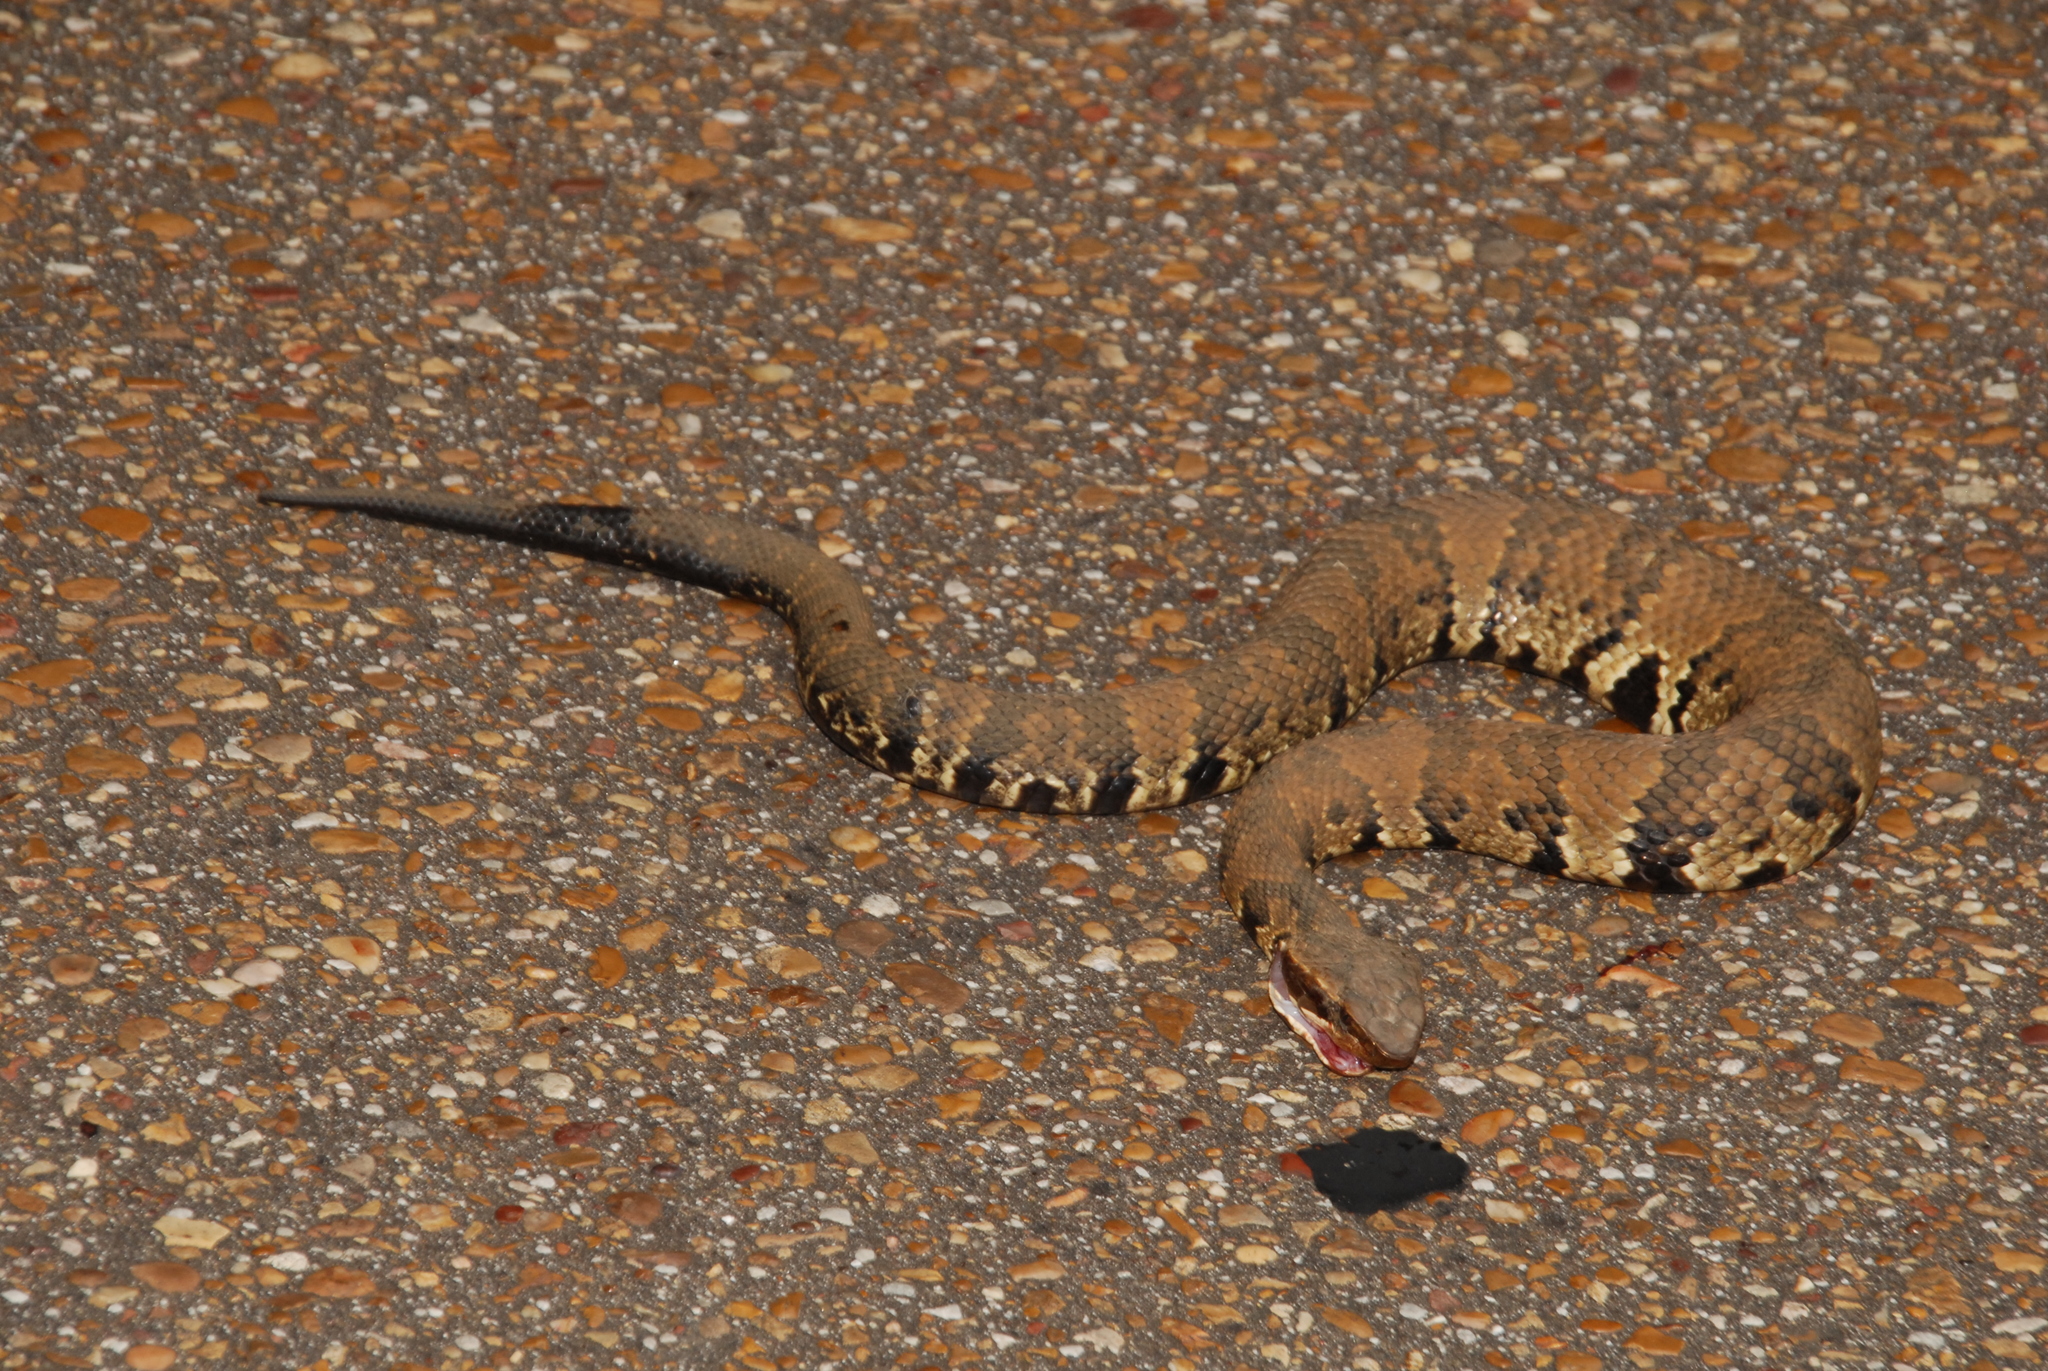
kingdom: Animalia
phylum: Chordata
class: Squamata
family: Viperidae
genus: Agkistrodon
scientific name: Agkistrodon piscivorus
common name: Cottonmouth
